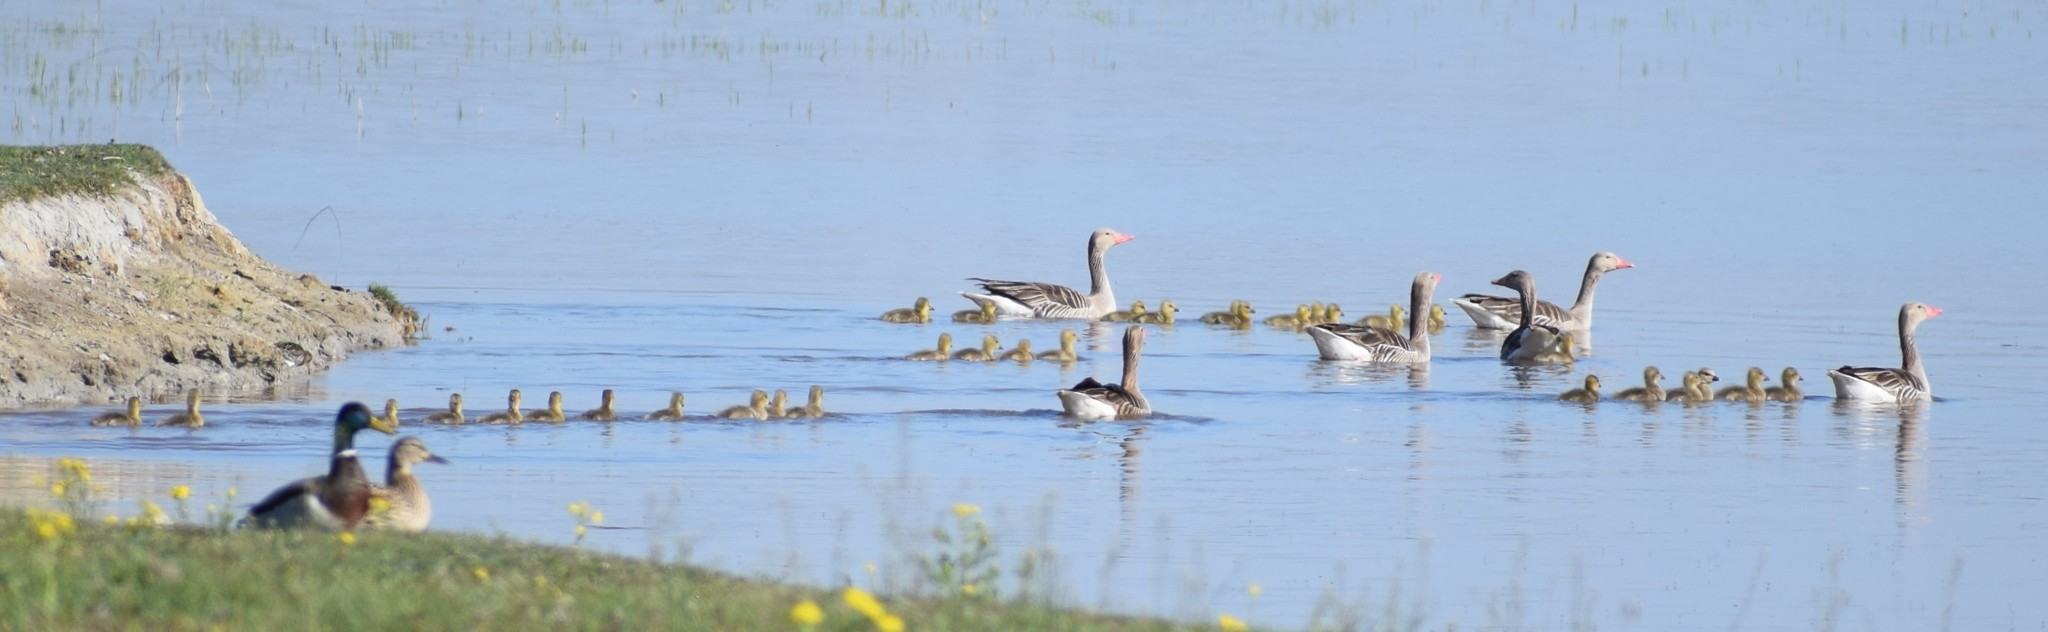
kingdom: Animalia
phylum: Chordata
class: Aves
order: Anseriformes
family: Anatidae
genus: Anser
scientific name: Anser anser
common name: Greylag goose
